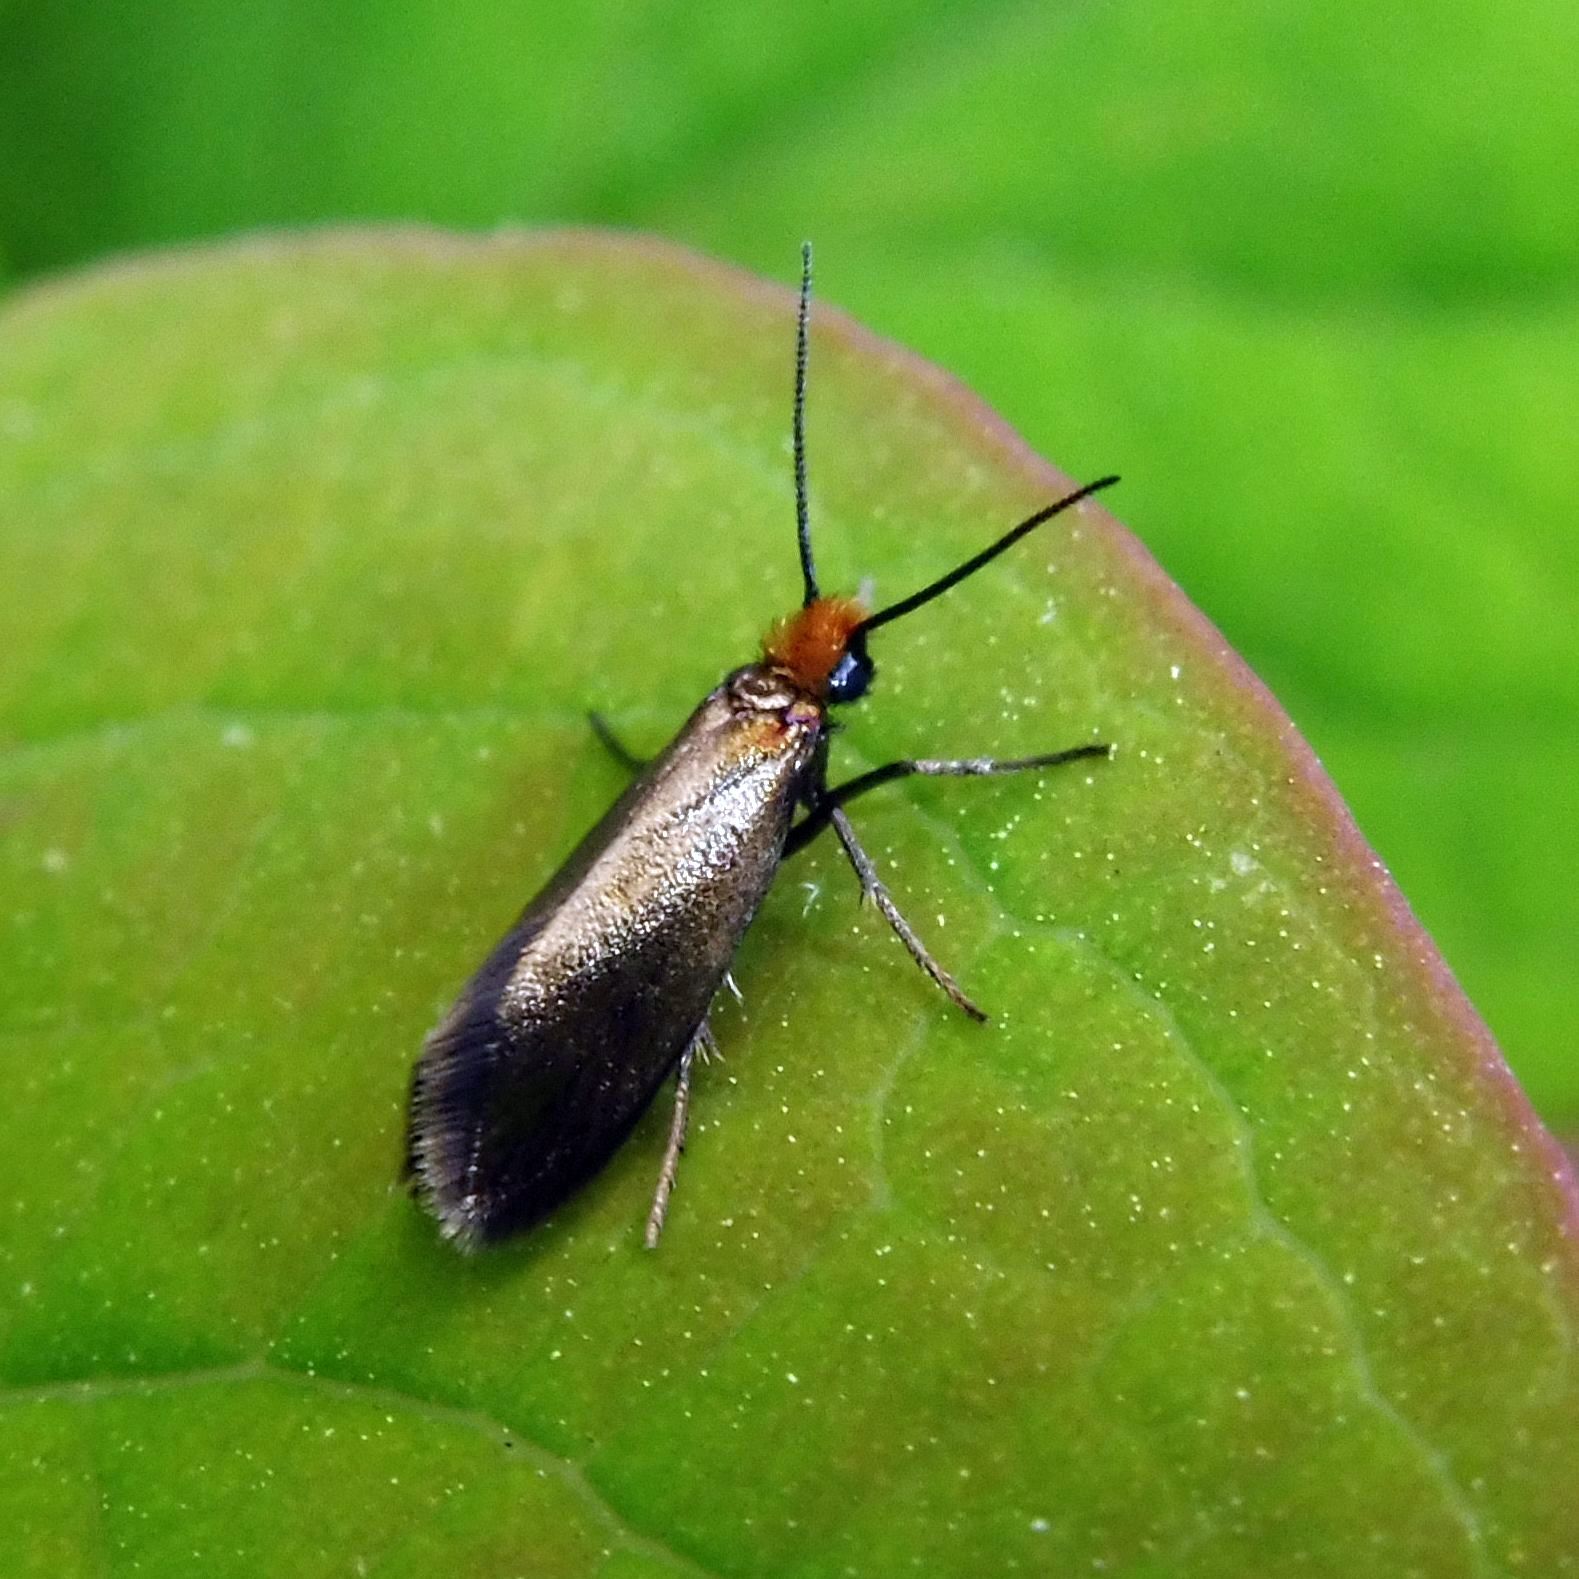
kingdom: Animalia
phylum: Arthropoda
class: Insecta
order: Lepidoptera
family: Micropterigidae
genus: Micropterix
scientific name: Micropterix calthella
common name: Plain gold
